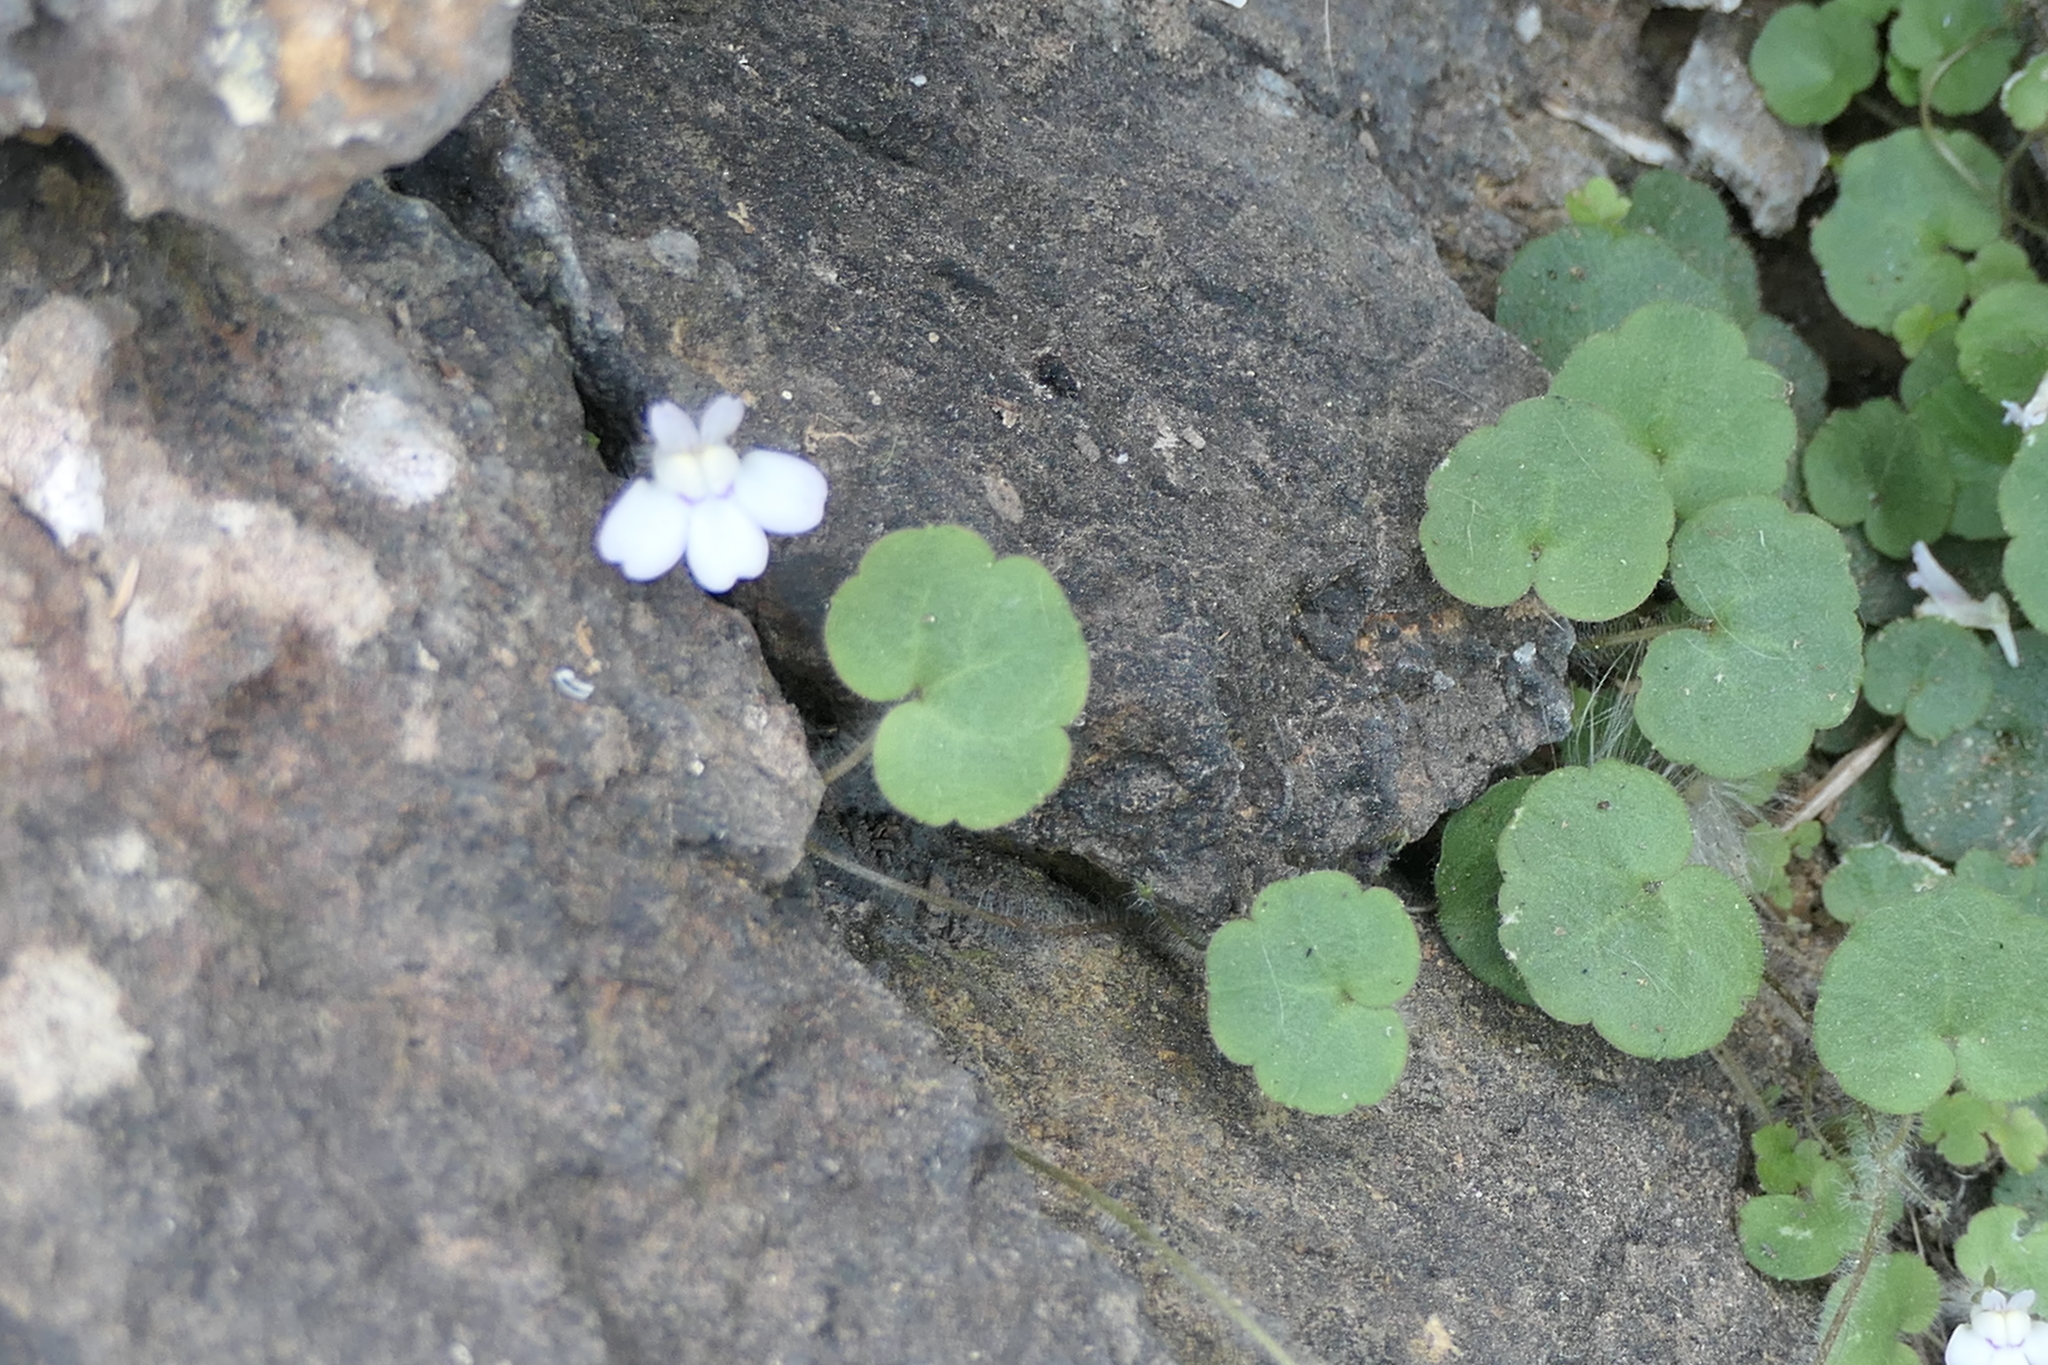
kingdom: Plantae
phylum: Tracheophyta
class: Magnoliopsida
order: Lamiales
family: Plantaginaceae
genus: Cymbalaria
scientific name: Cymbalaria aequitriloba
